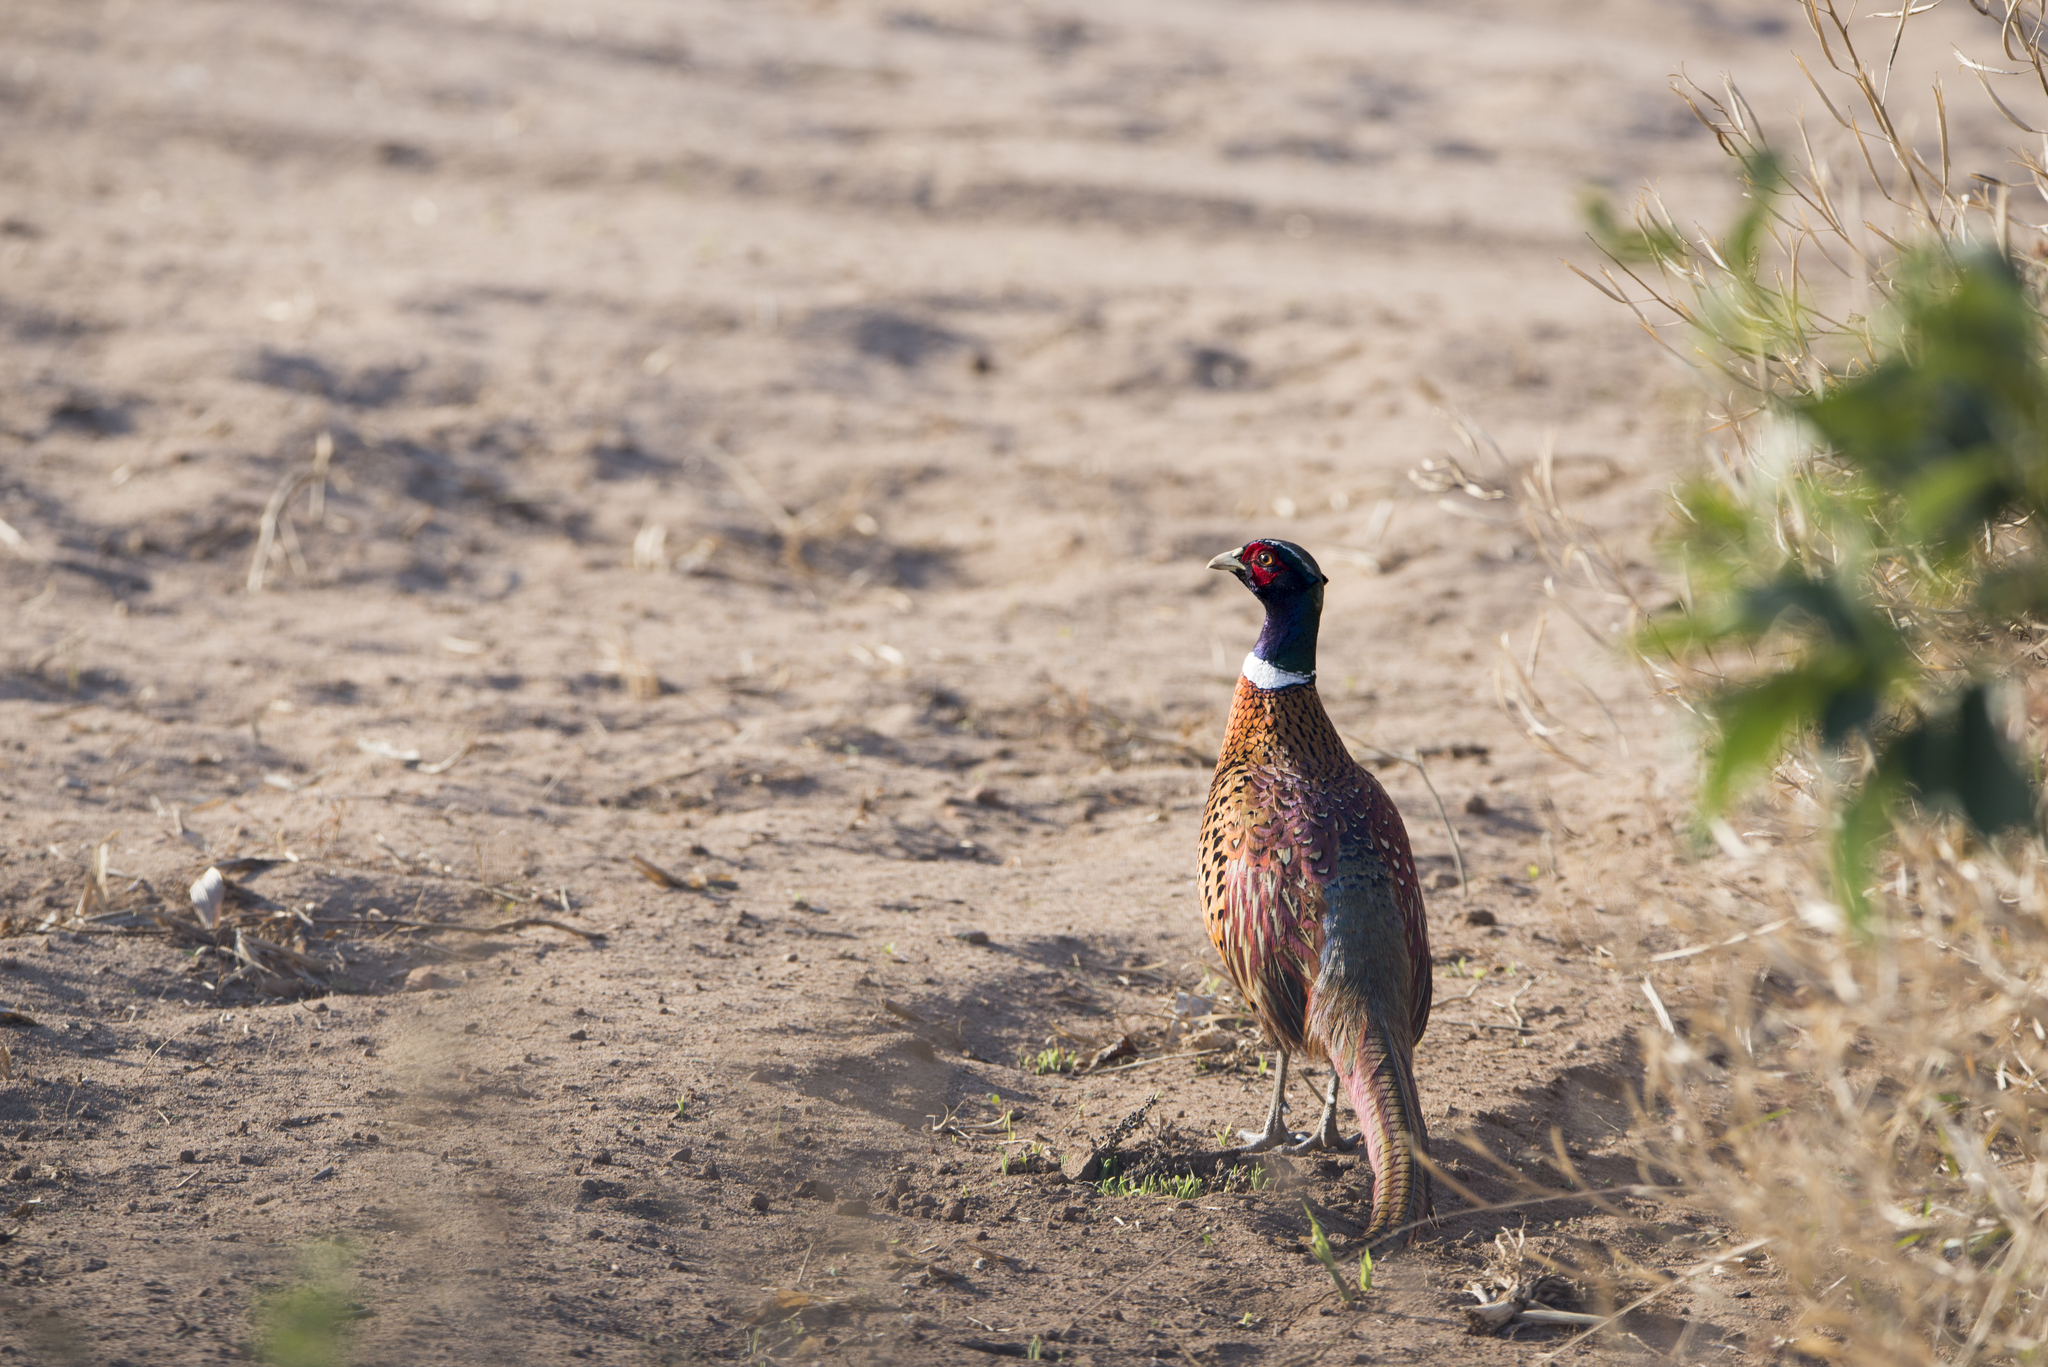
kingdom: Animalia
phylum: Chordata
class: Aves
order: Galliformes
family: Phasianidae
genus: Phasianus
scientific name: Phasianus colchicus
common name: Common pheasant
